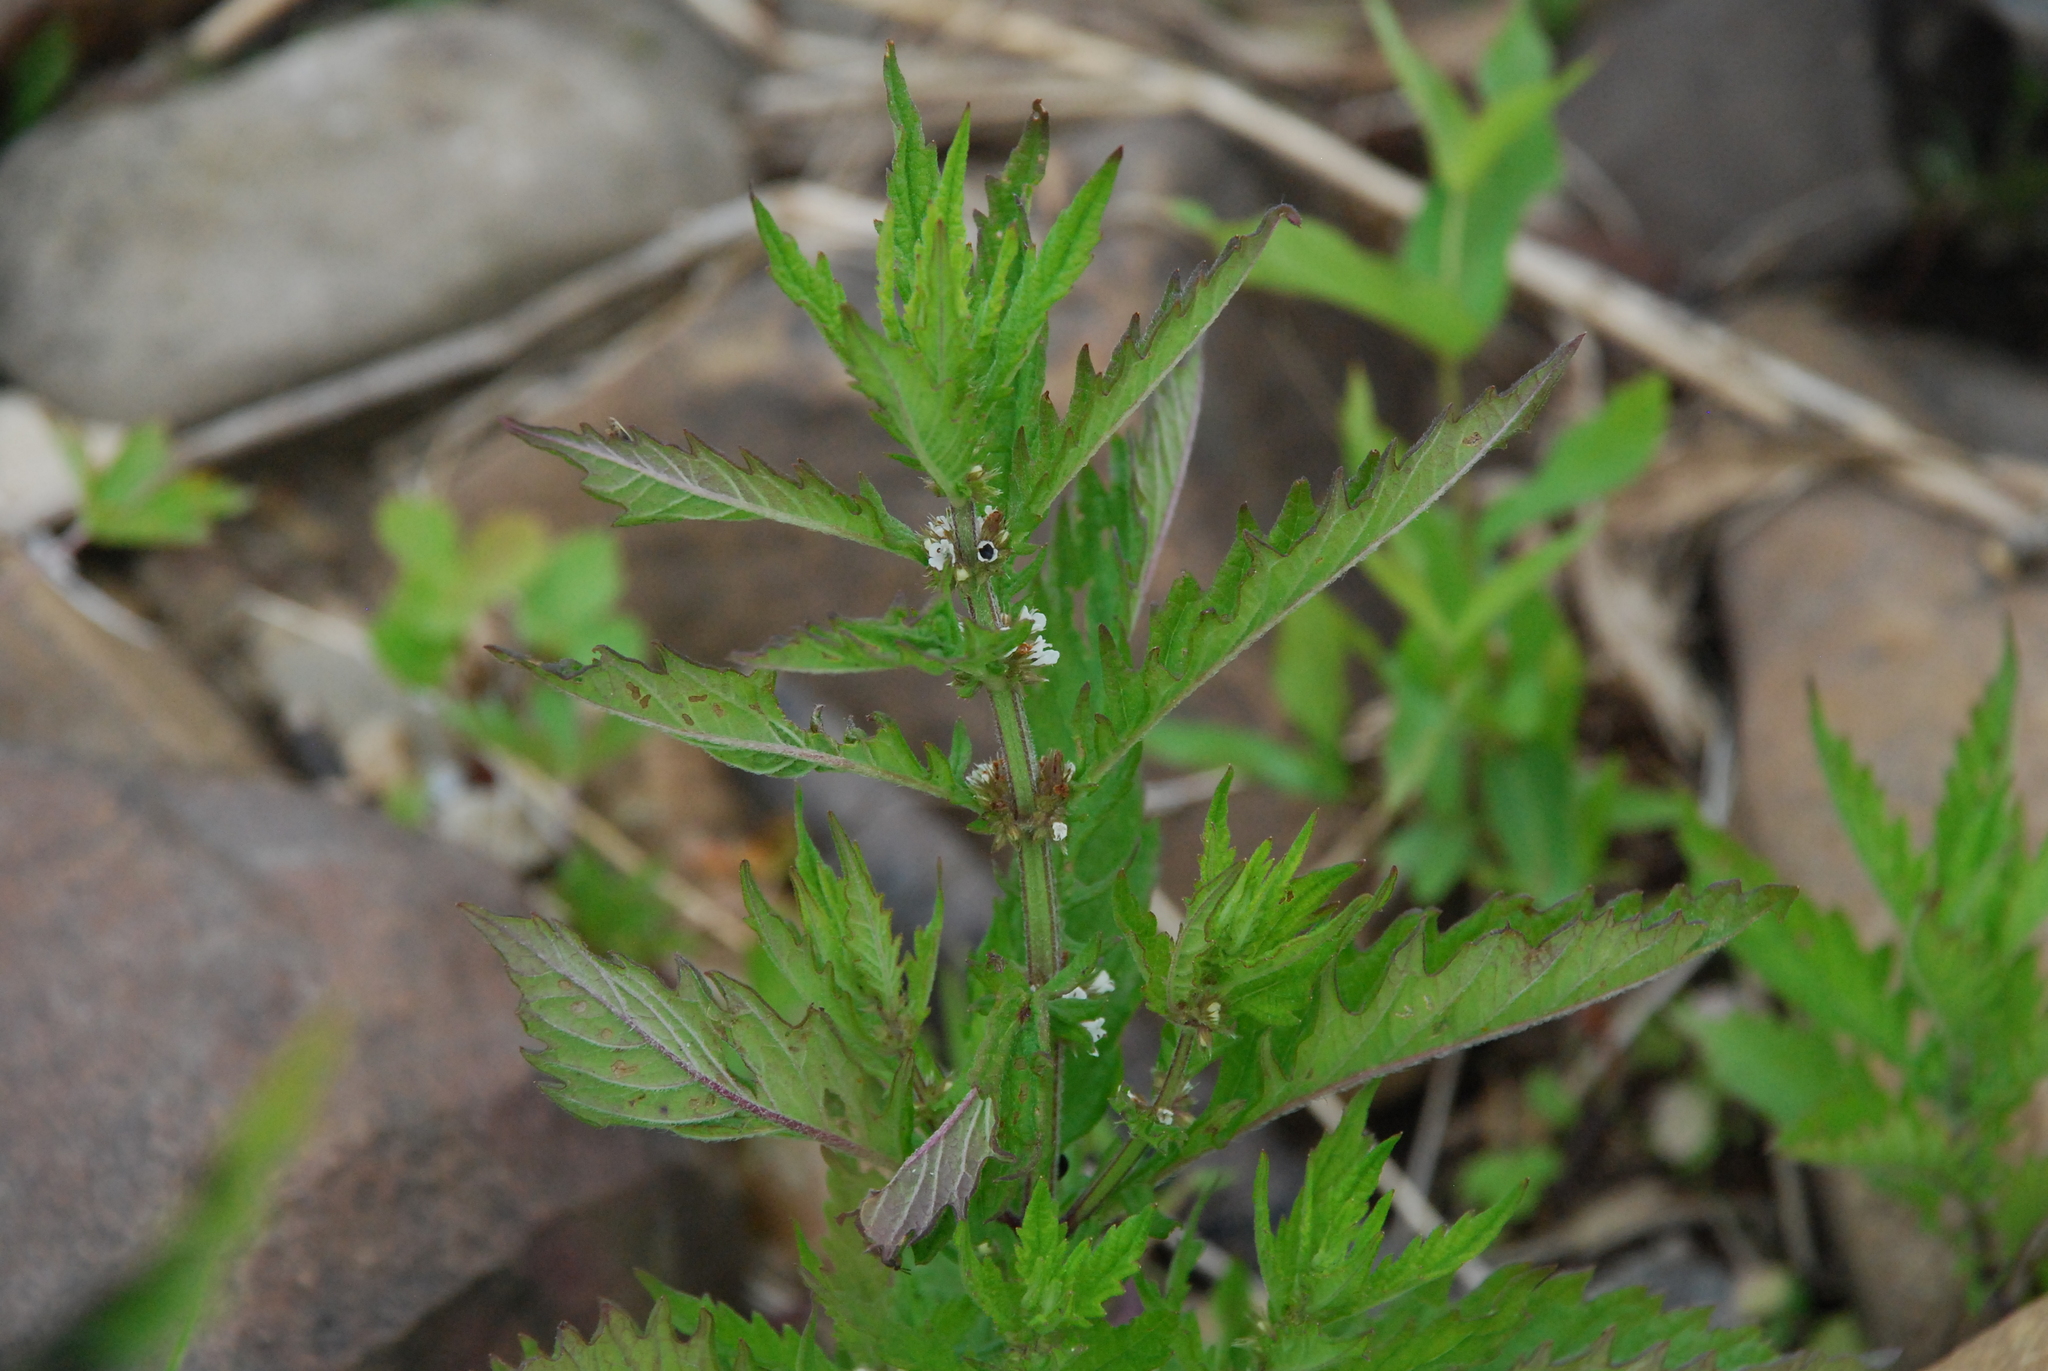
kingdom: Plantae
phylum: Tracheophyta
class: Magnoliopsida
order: Lamiales
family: Lamiaceae
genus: Lycopus
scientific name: Lycopus europaeus
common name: European bugleweed
